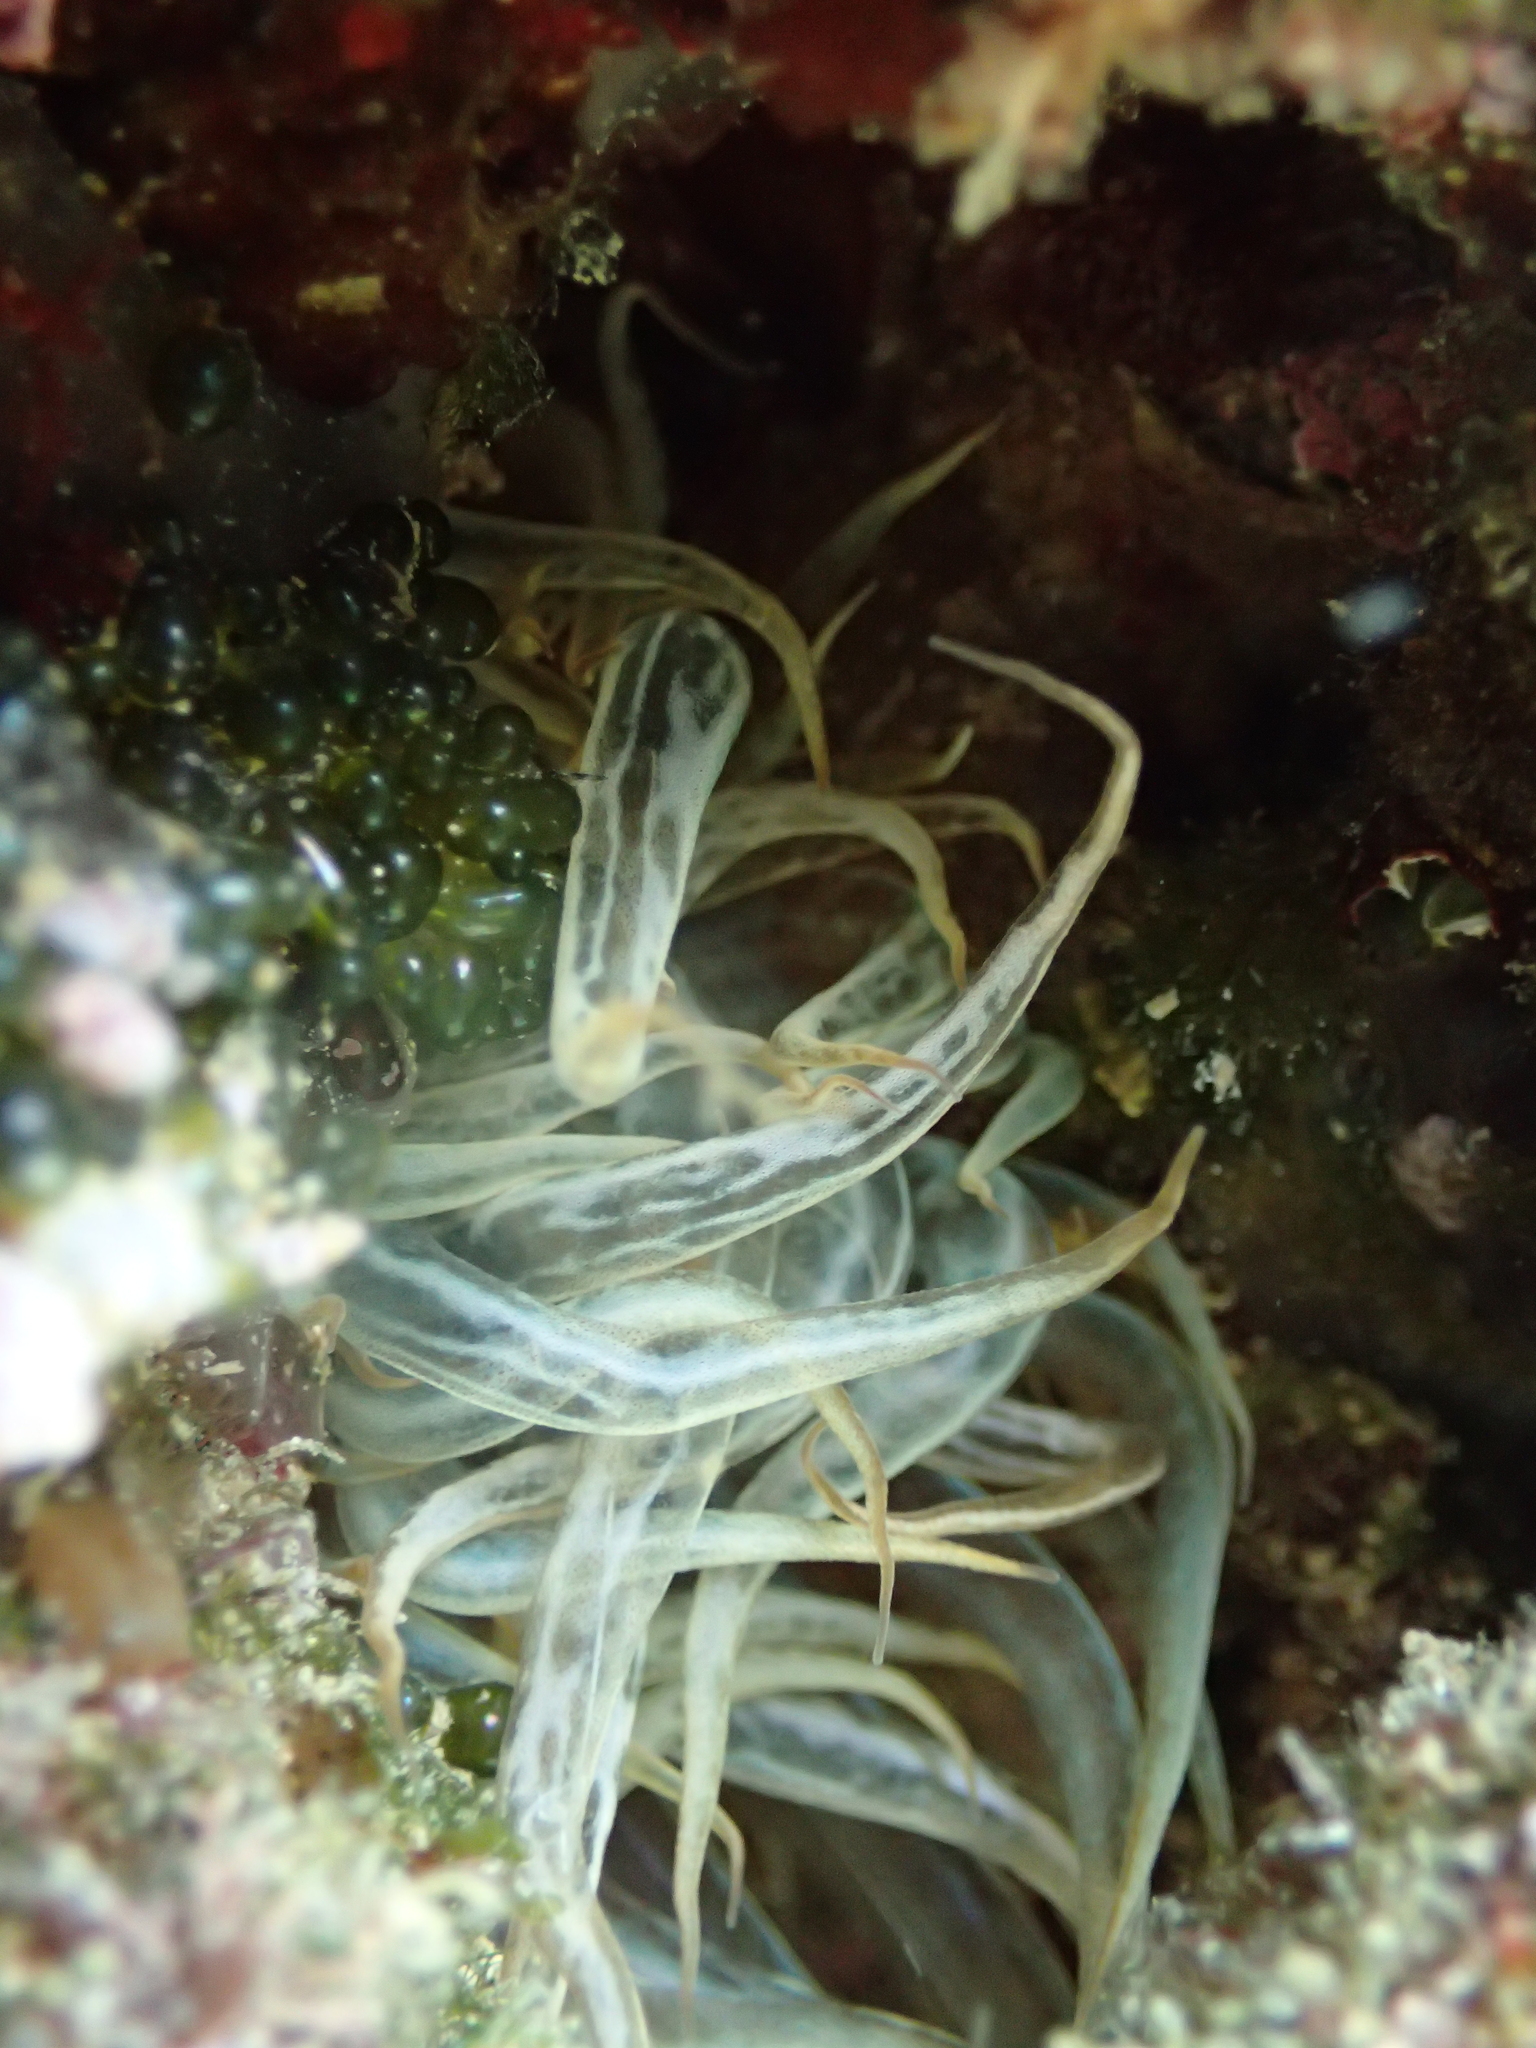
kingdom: Animalia
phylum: Cnidaria
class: Anthozoa
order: Actiniaria
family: Aiptasiidae
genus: Aiptasia
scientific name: Aiptasia mutabilis
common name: Trumpet anemone
